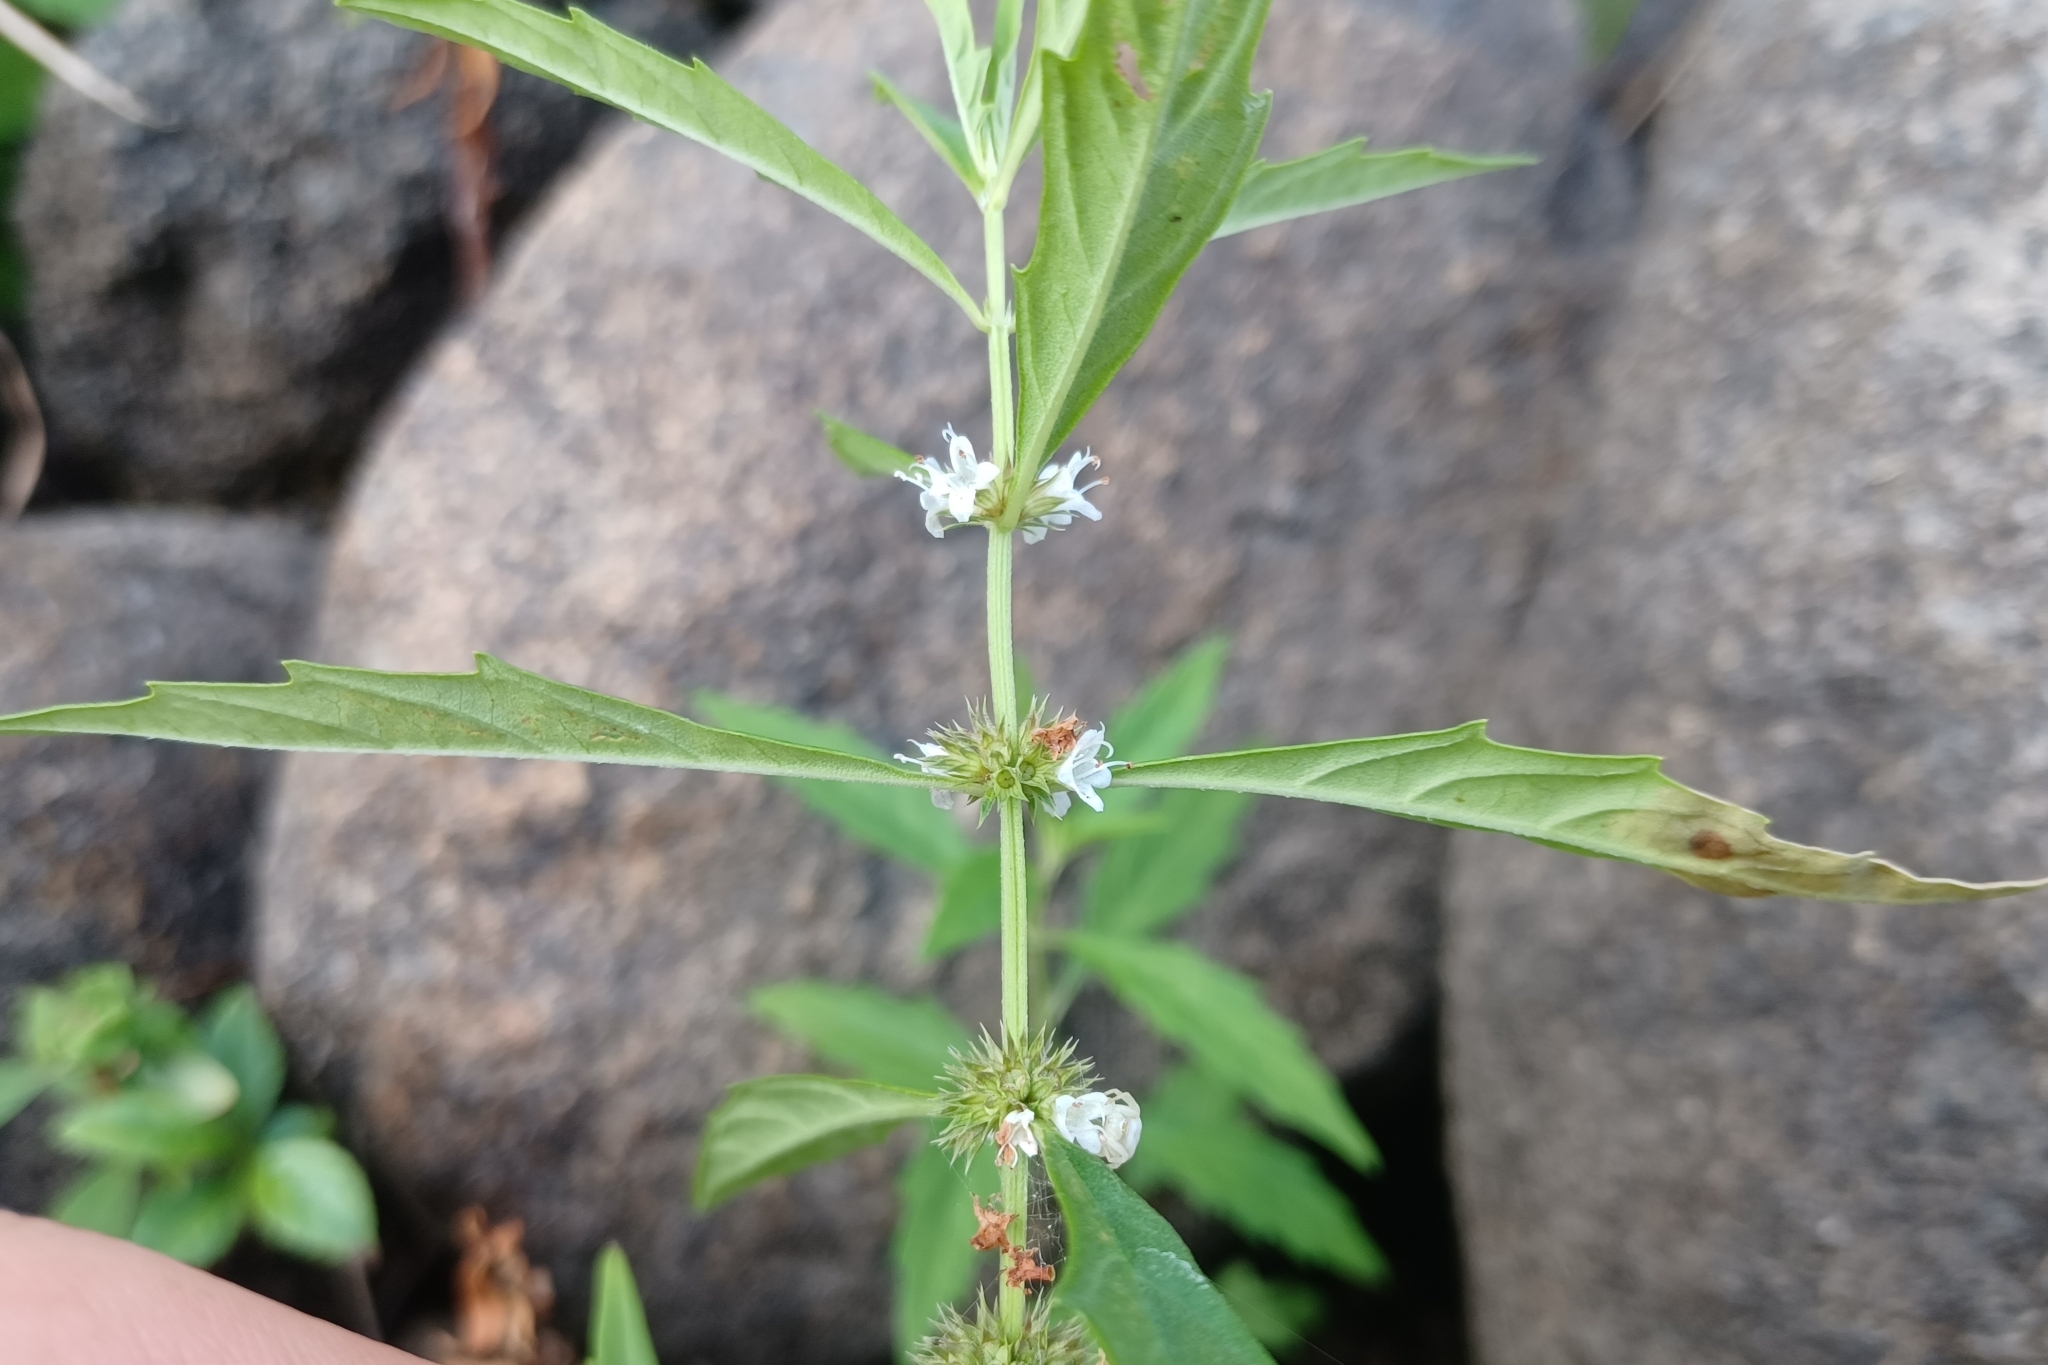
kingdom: Plantae
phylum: Tracheophyta
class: Magnoliopsida
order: Lamiales
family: Lamiaceae
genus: Lycopus
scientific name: Lycopus americanus
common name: American bugleweed
